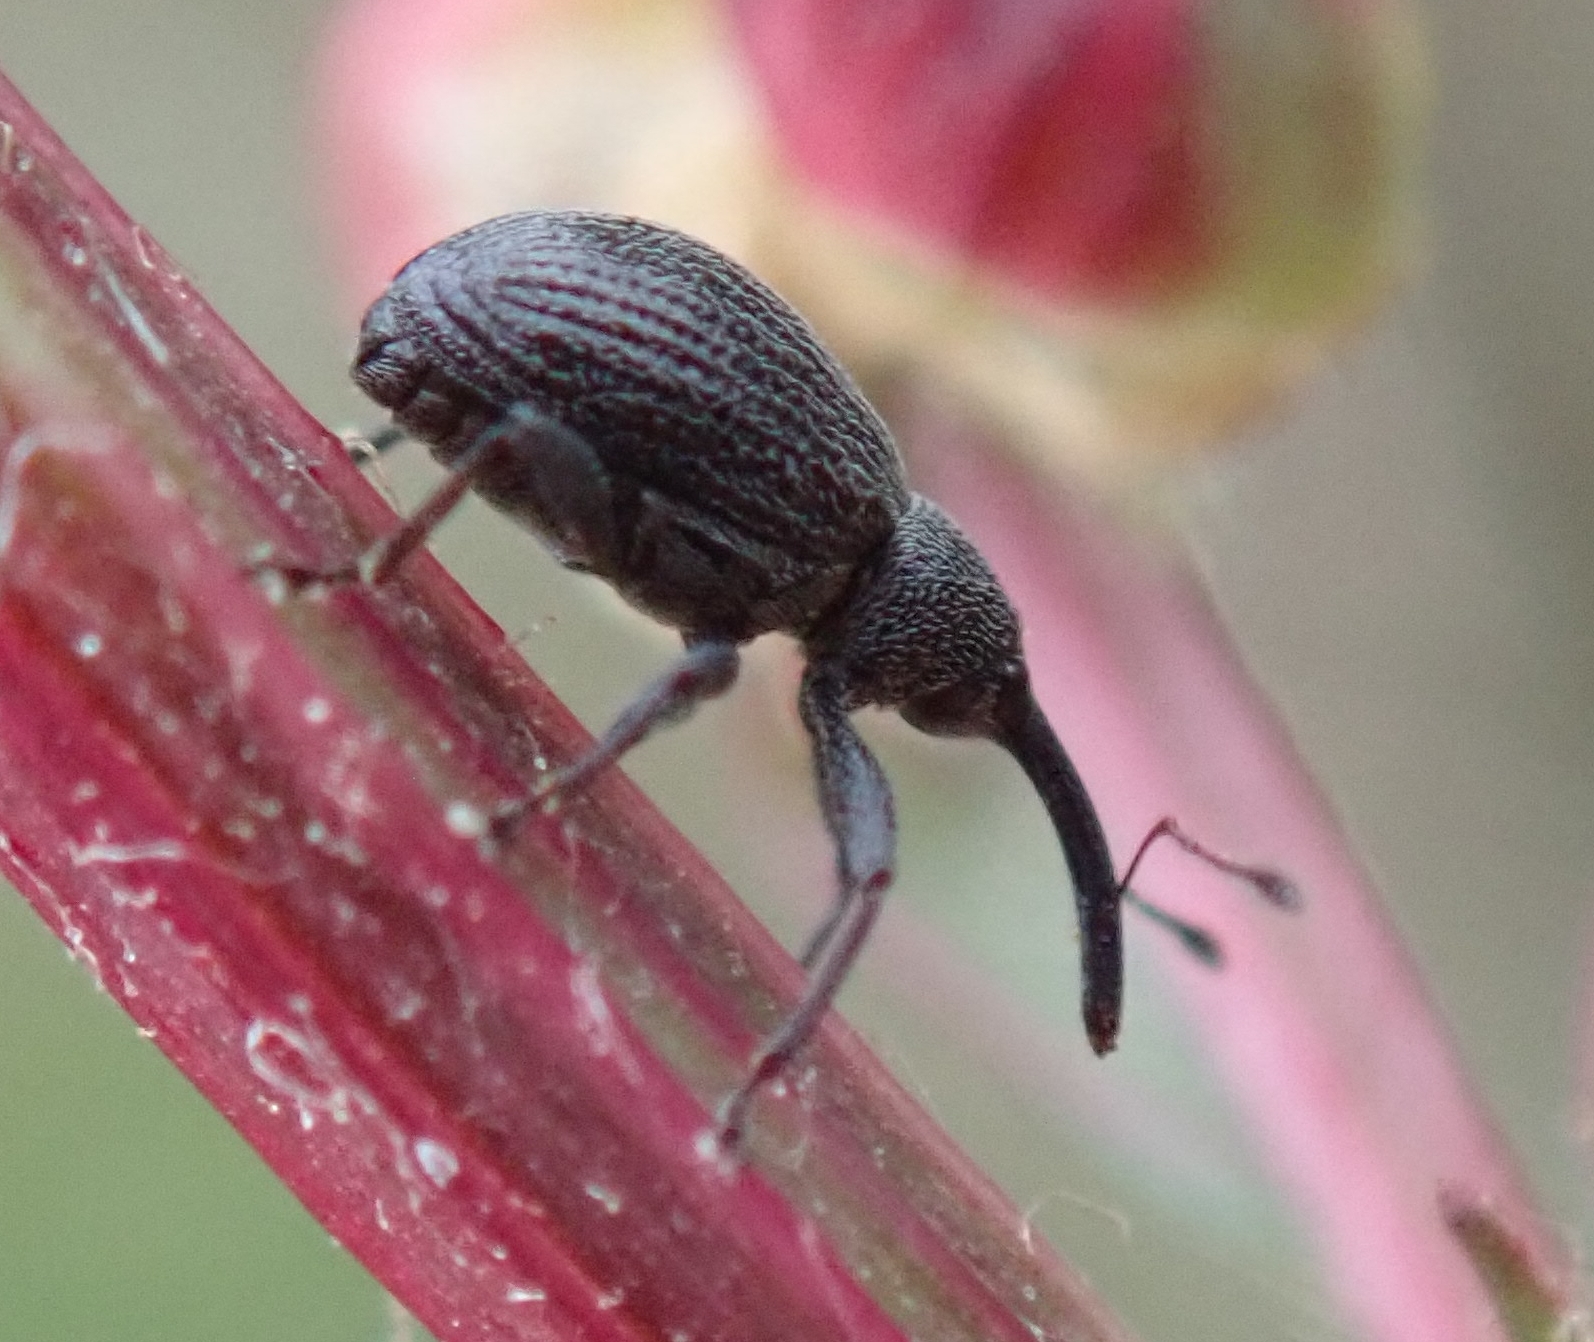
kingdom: Animalia
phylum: Arthropoda
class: Insecta
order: Coleoptera
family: Curculionidae
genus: Anthonomus
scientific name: Anthonomus rubi
